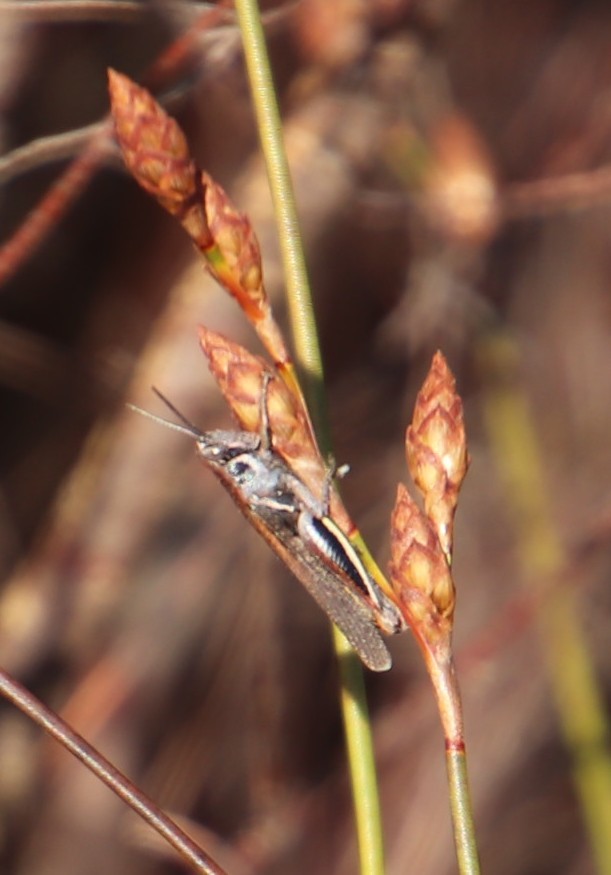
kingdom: Animalia
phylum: Arthropoda
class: Insecta
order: Orthoptera
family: Acrididae
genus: Vitticatantops
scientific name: Vitticatantops humeralis
